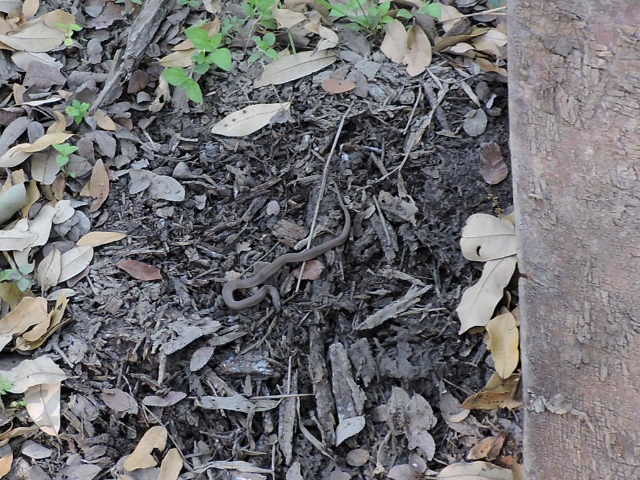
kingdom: Animalia
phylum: Chordata
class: Squamata
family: Colubridae
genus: Haldea
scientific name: Haldea striatula
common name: Rough earth snake
